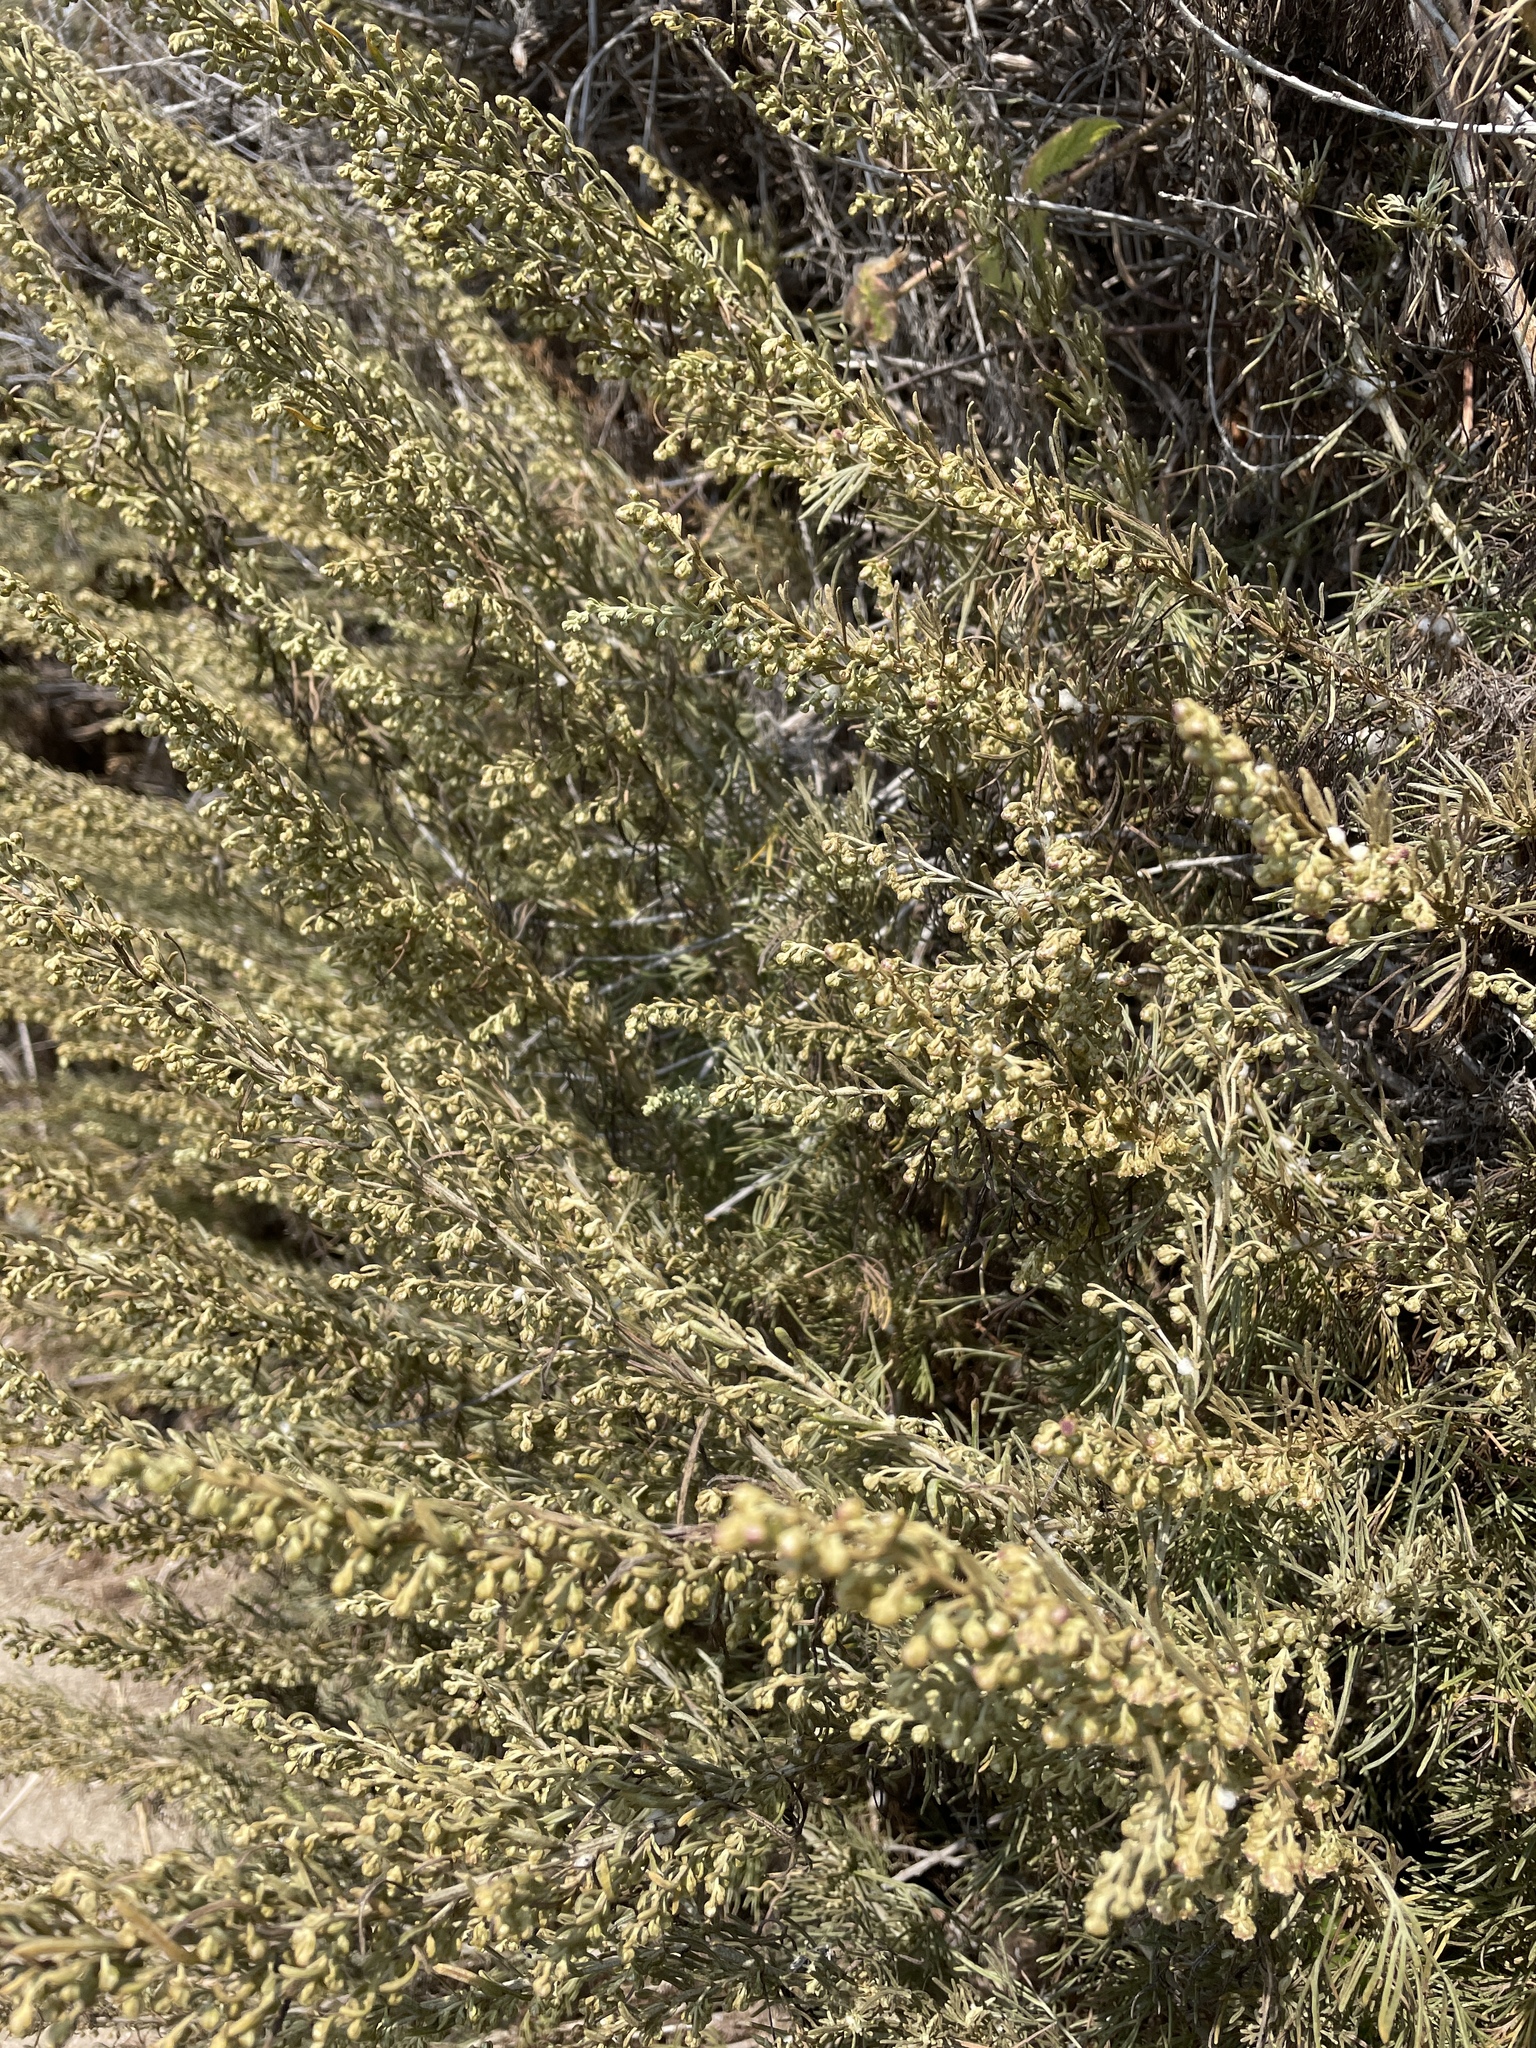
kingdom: Plantae
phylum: Tracheophyta
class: Magnoliopsida
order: Asterales
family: Asteraceae
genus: Artemisia
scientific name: Artemisia californica
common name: California sagebrush
